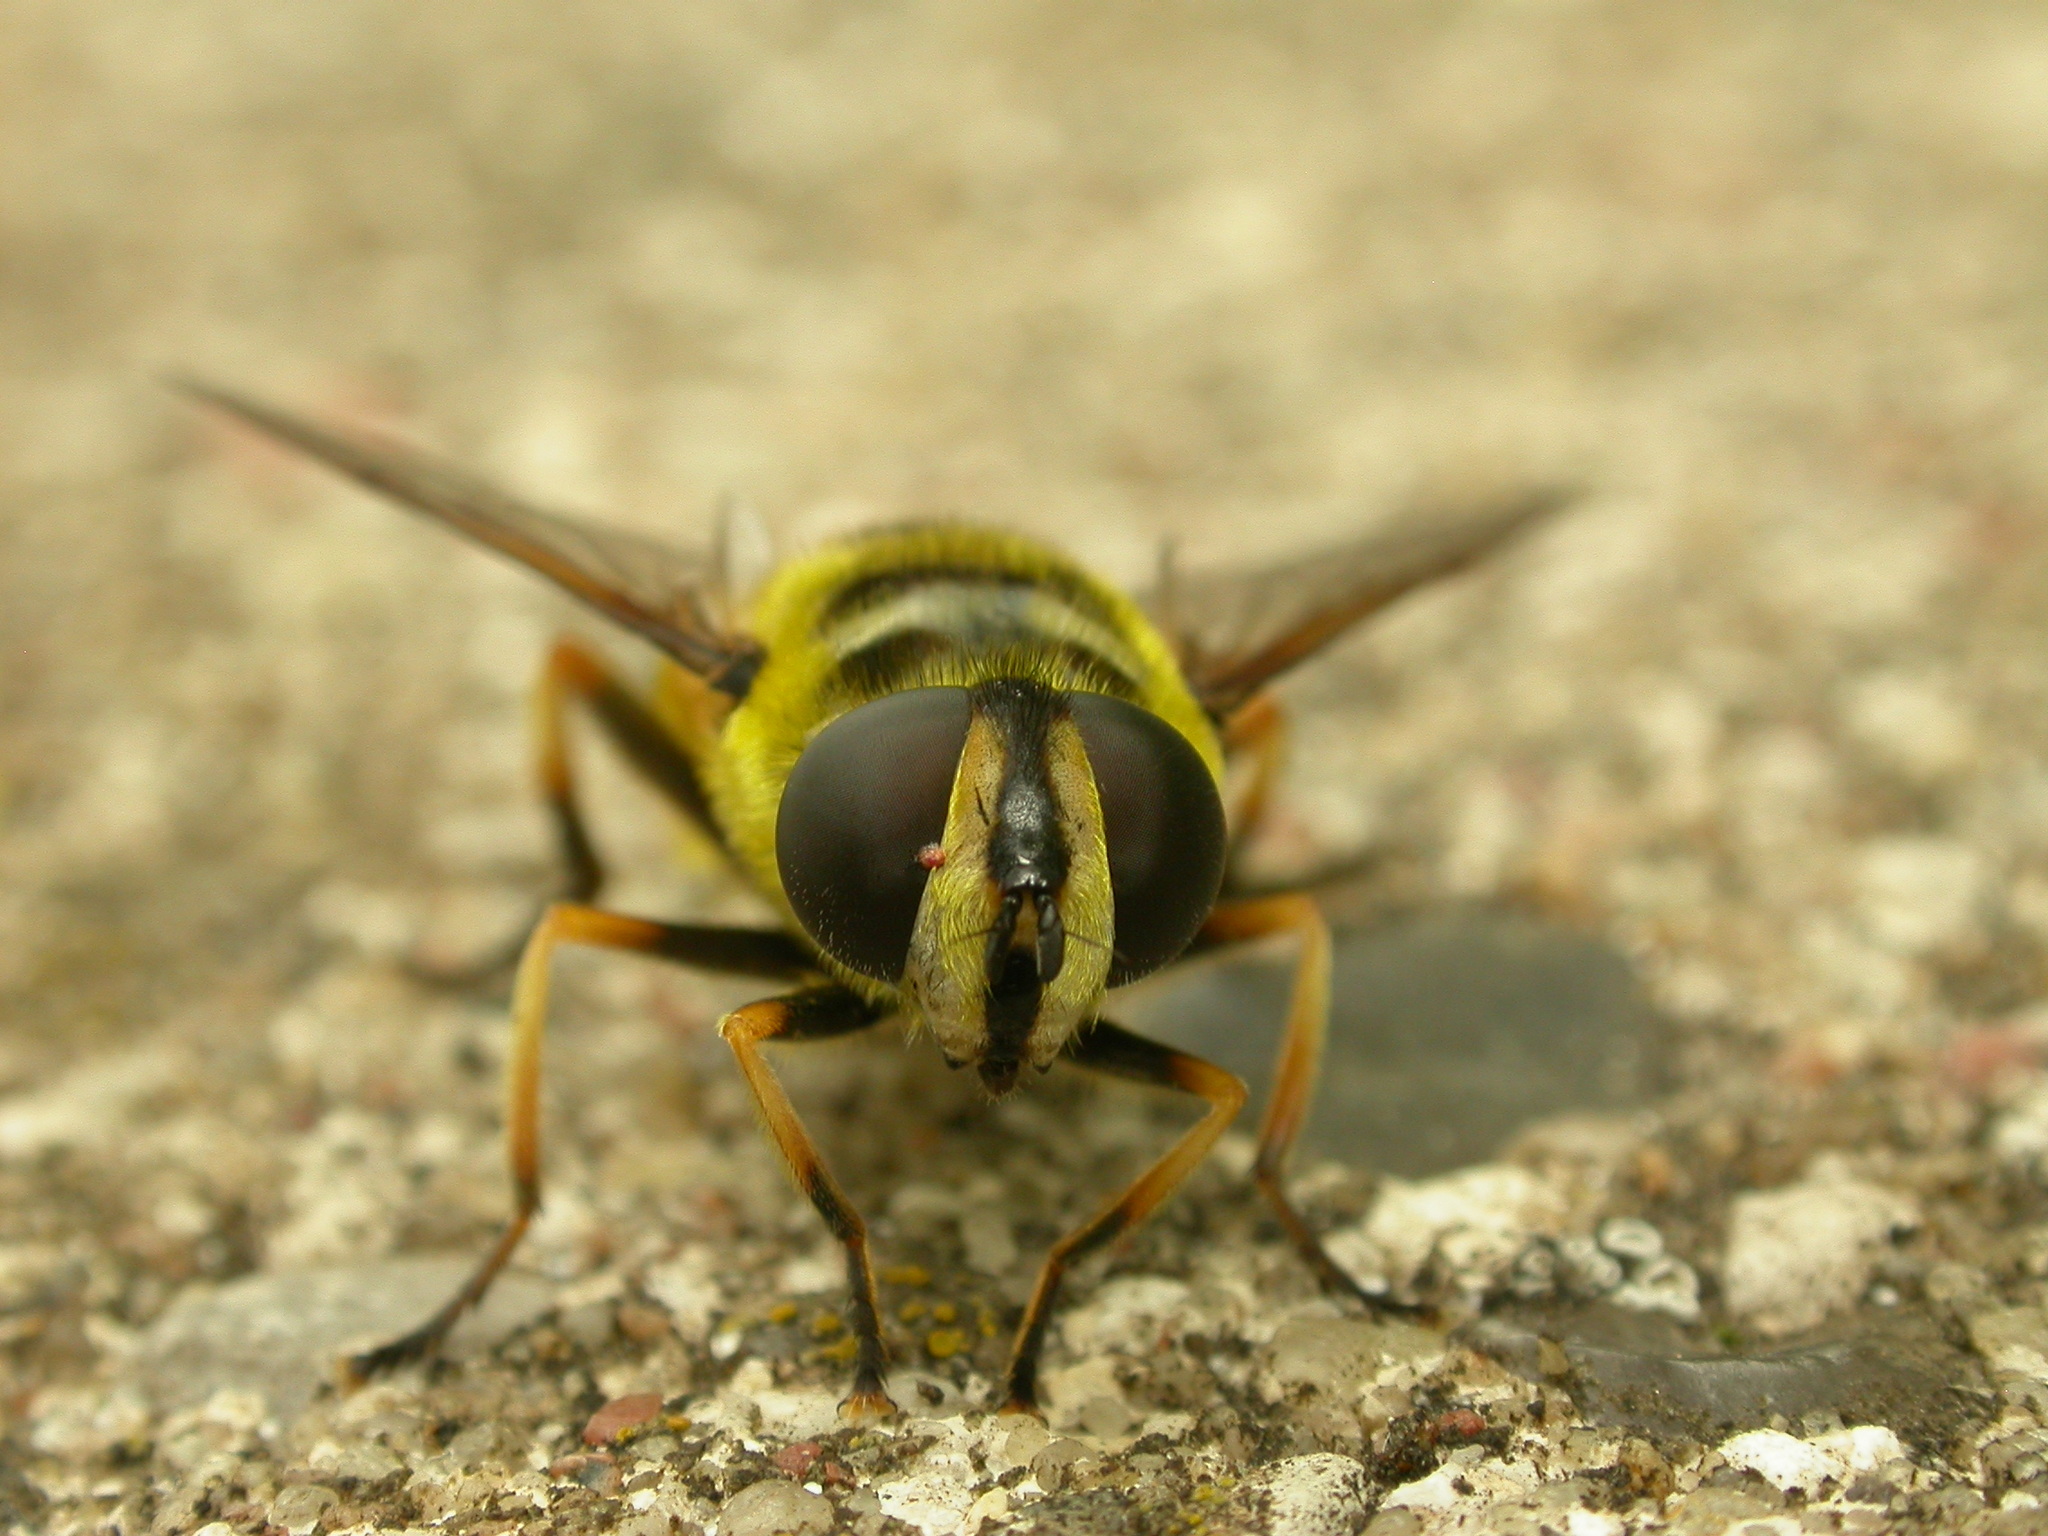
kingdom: Animalia
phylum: Arthropoda
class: Insecta
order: Diptera
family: Syrphidae
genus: Myathropa
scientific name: Myathropa florea
